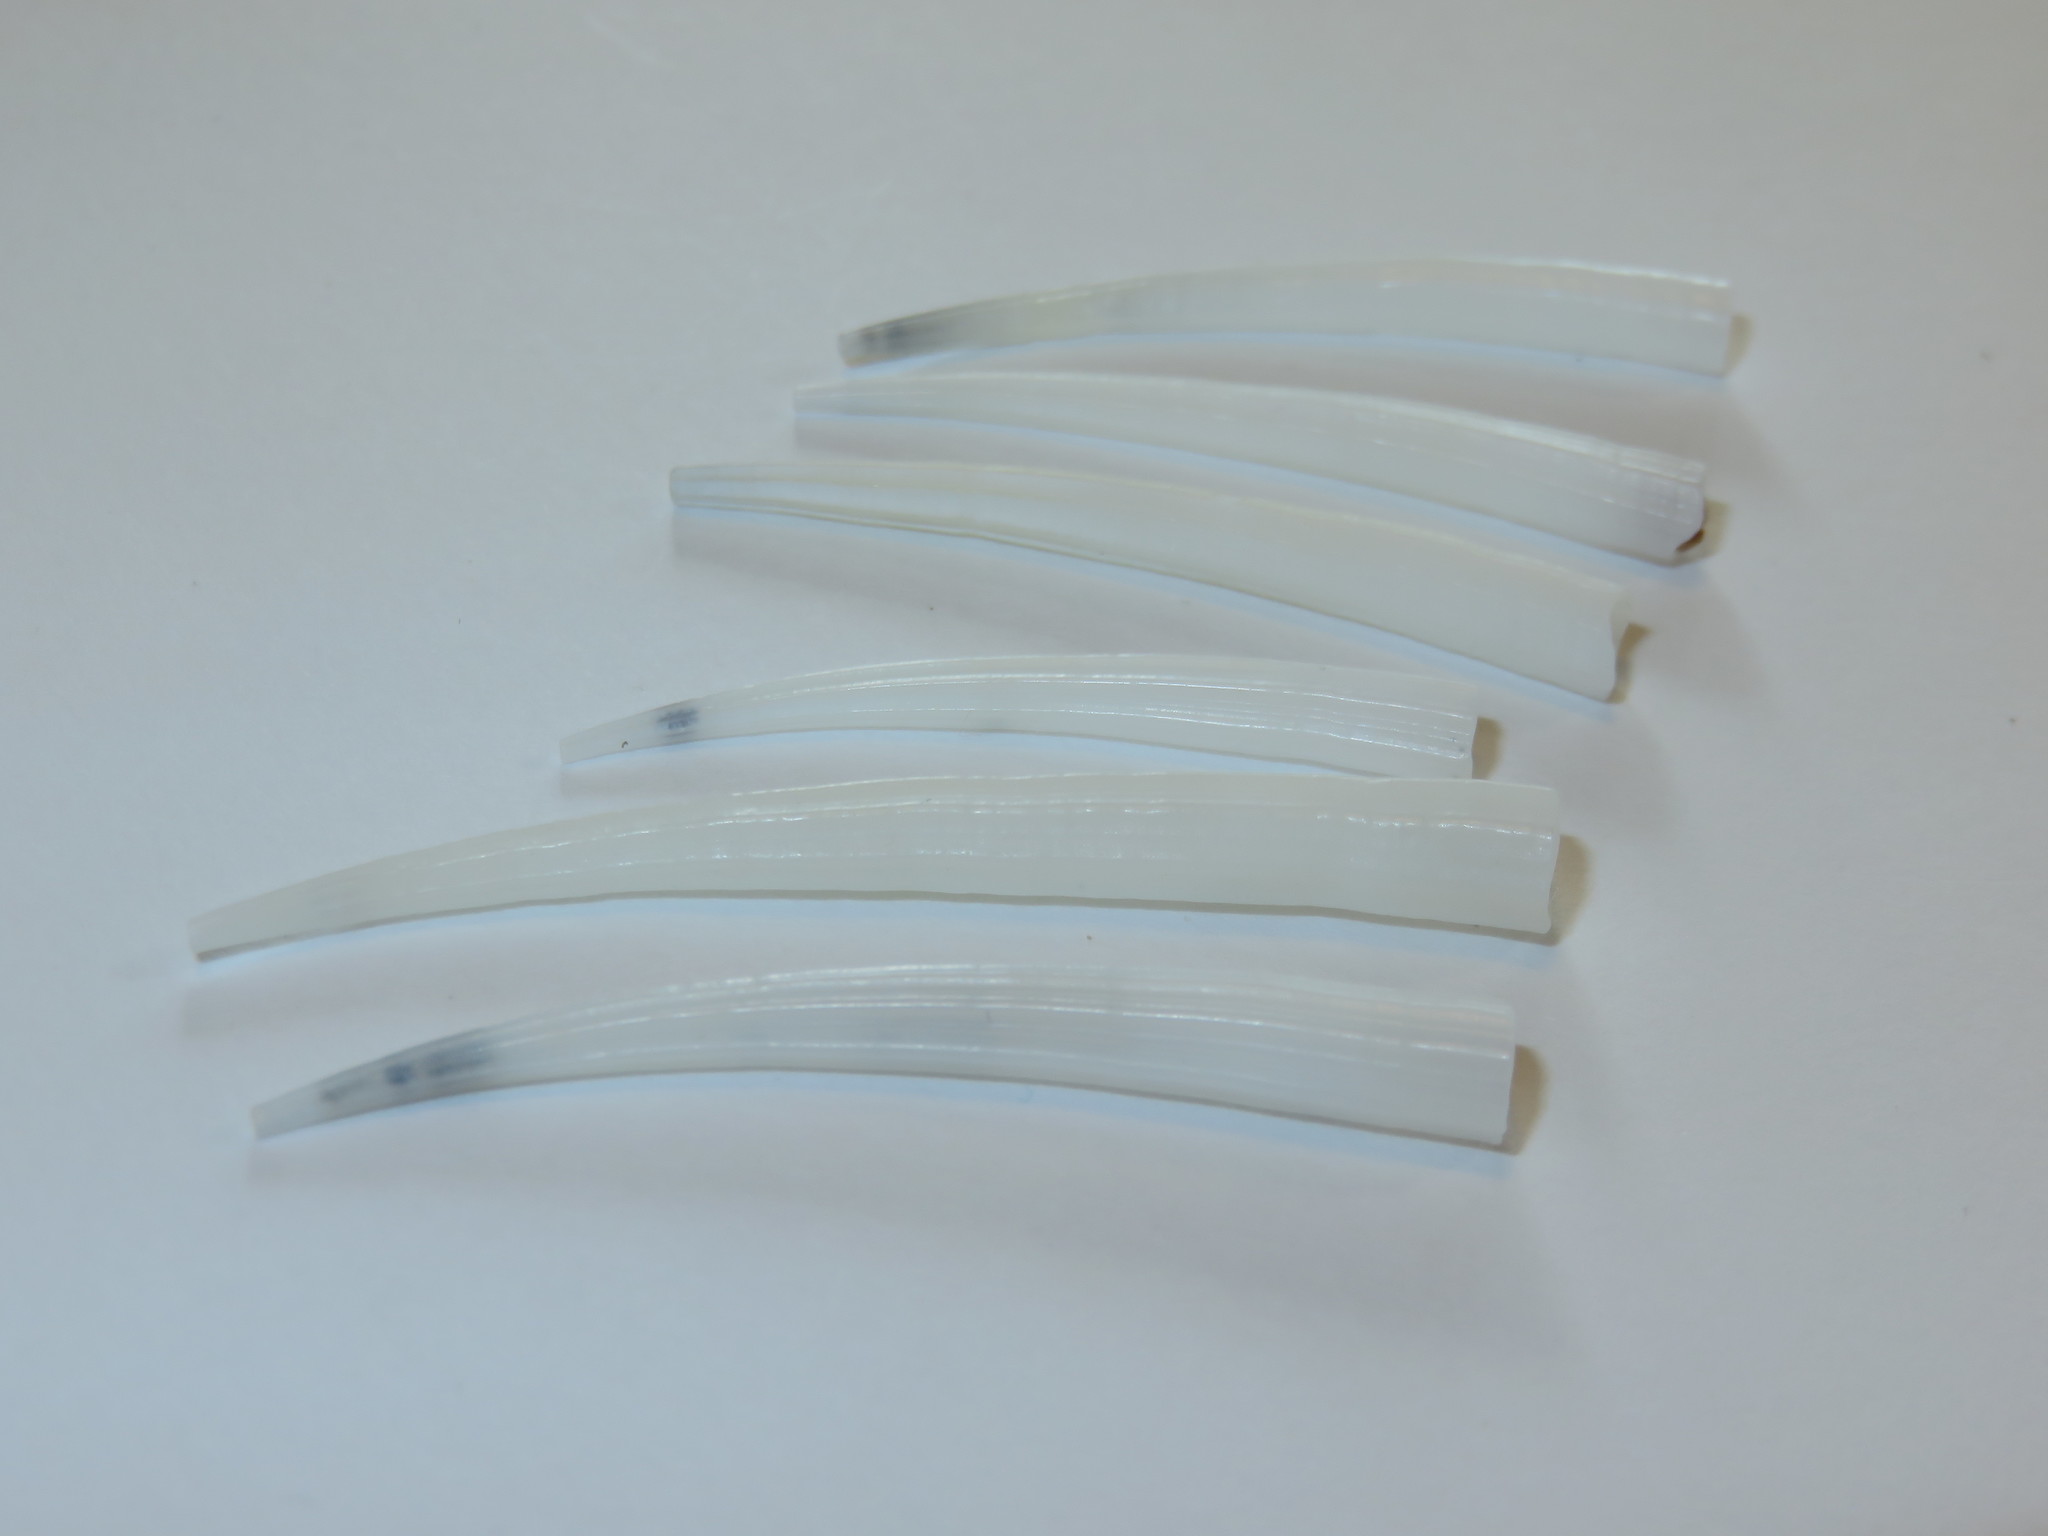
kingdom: Animalia
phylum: Mollusca
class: Scaphopoda
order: Dentaliida
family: Dentaliidae
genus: Dentalium
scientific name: Dentalium octangulatum
